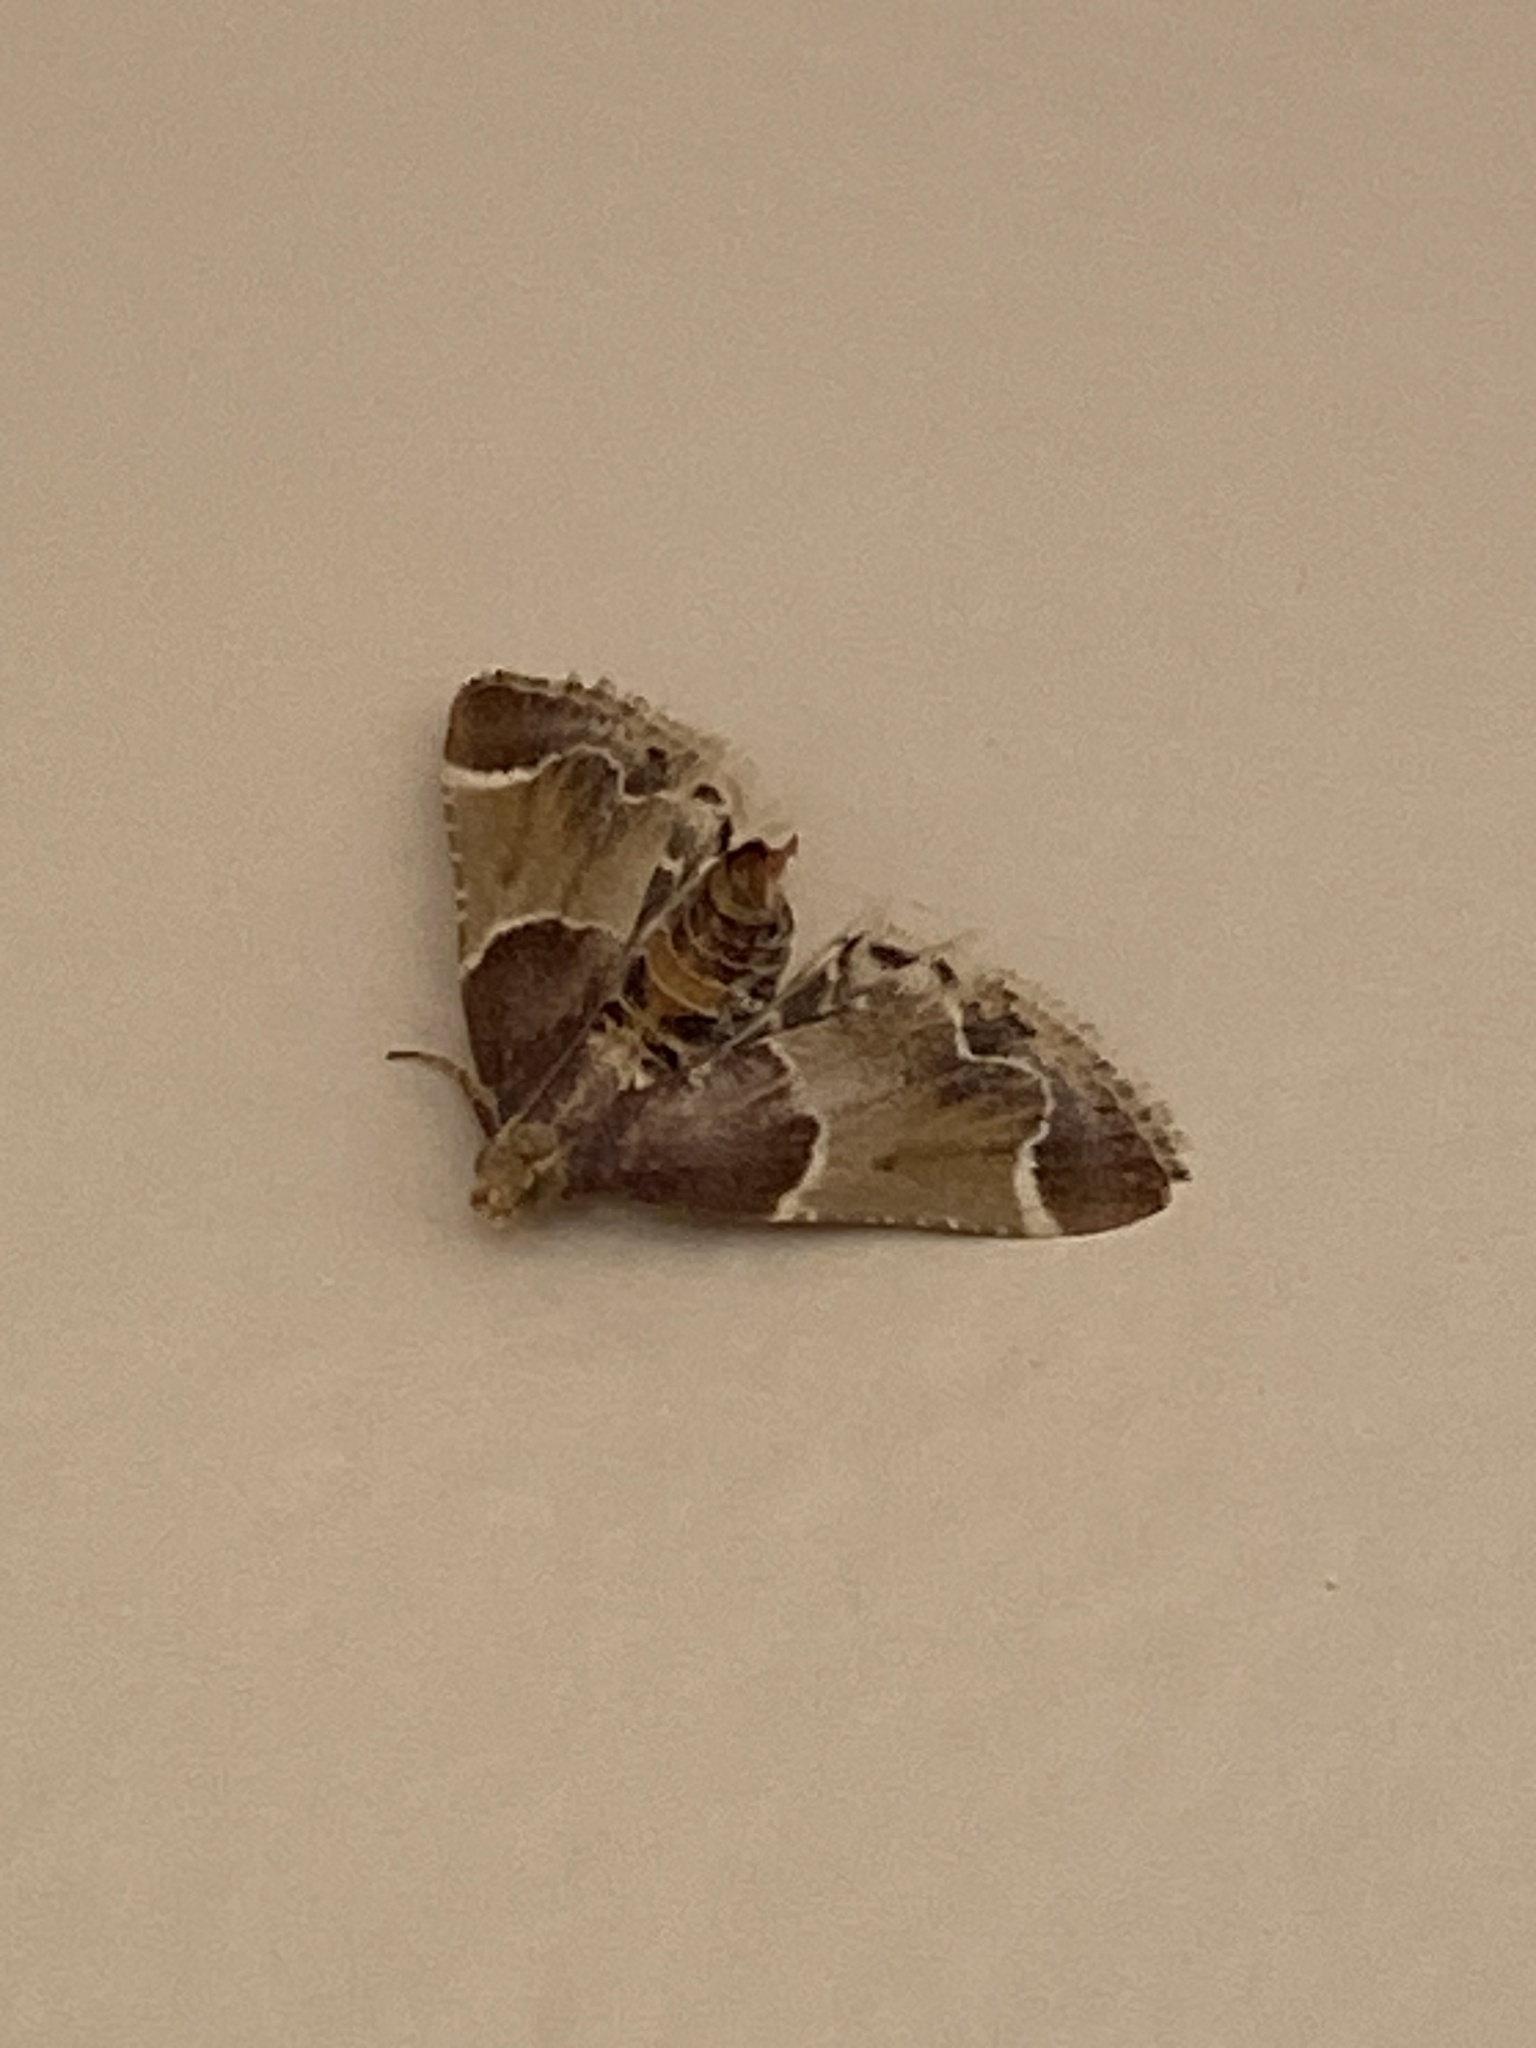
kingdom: Animalia
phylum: Arthropoda
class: Insecta
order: Lepidoptera
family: Pyralidae
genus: Pyralis
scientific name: Pyralis farinalis
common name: Meal moth
